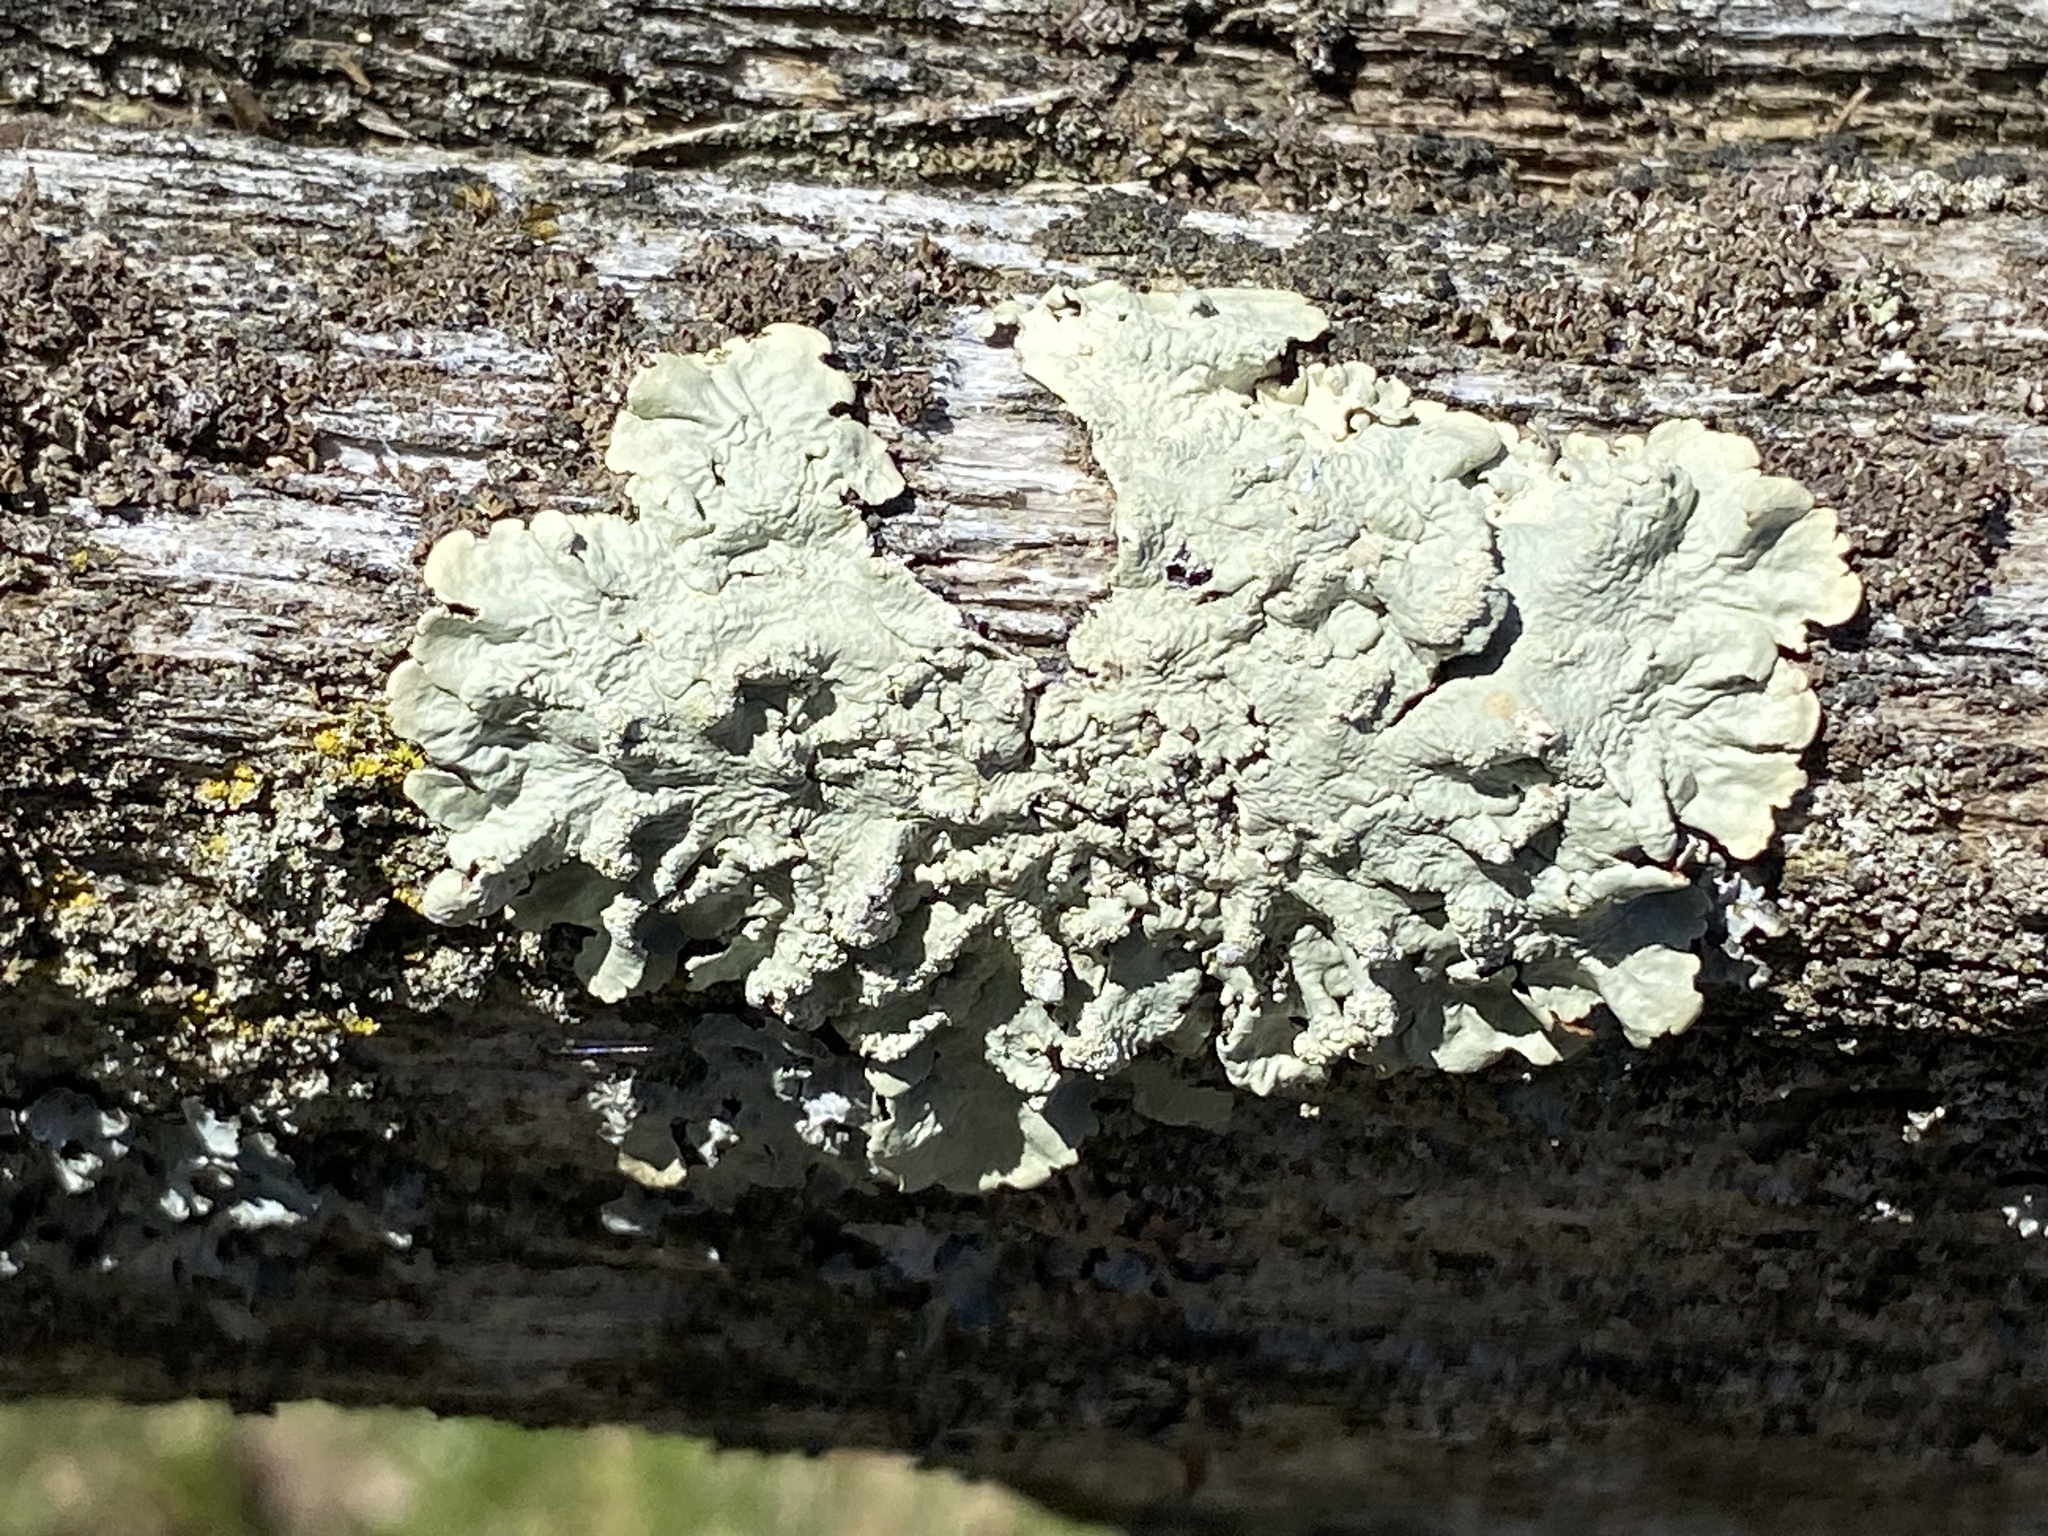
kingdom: Fungi
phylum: Ascomycota
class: Lecanoromycetes
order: Lecanorales
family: Parmeliaceae
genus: Flavoparmelia
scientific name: Flavoparmelia caperata
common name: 40-mile per hour lichen
